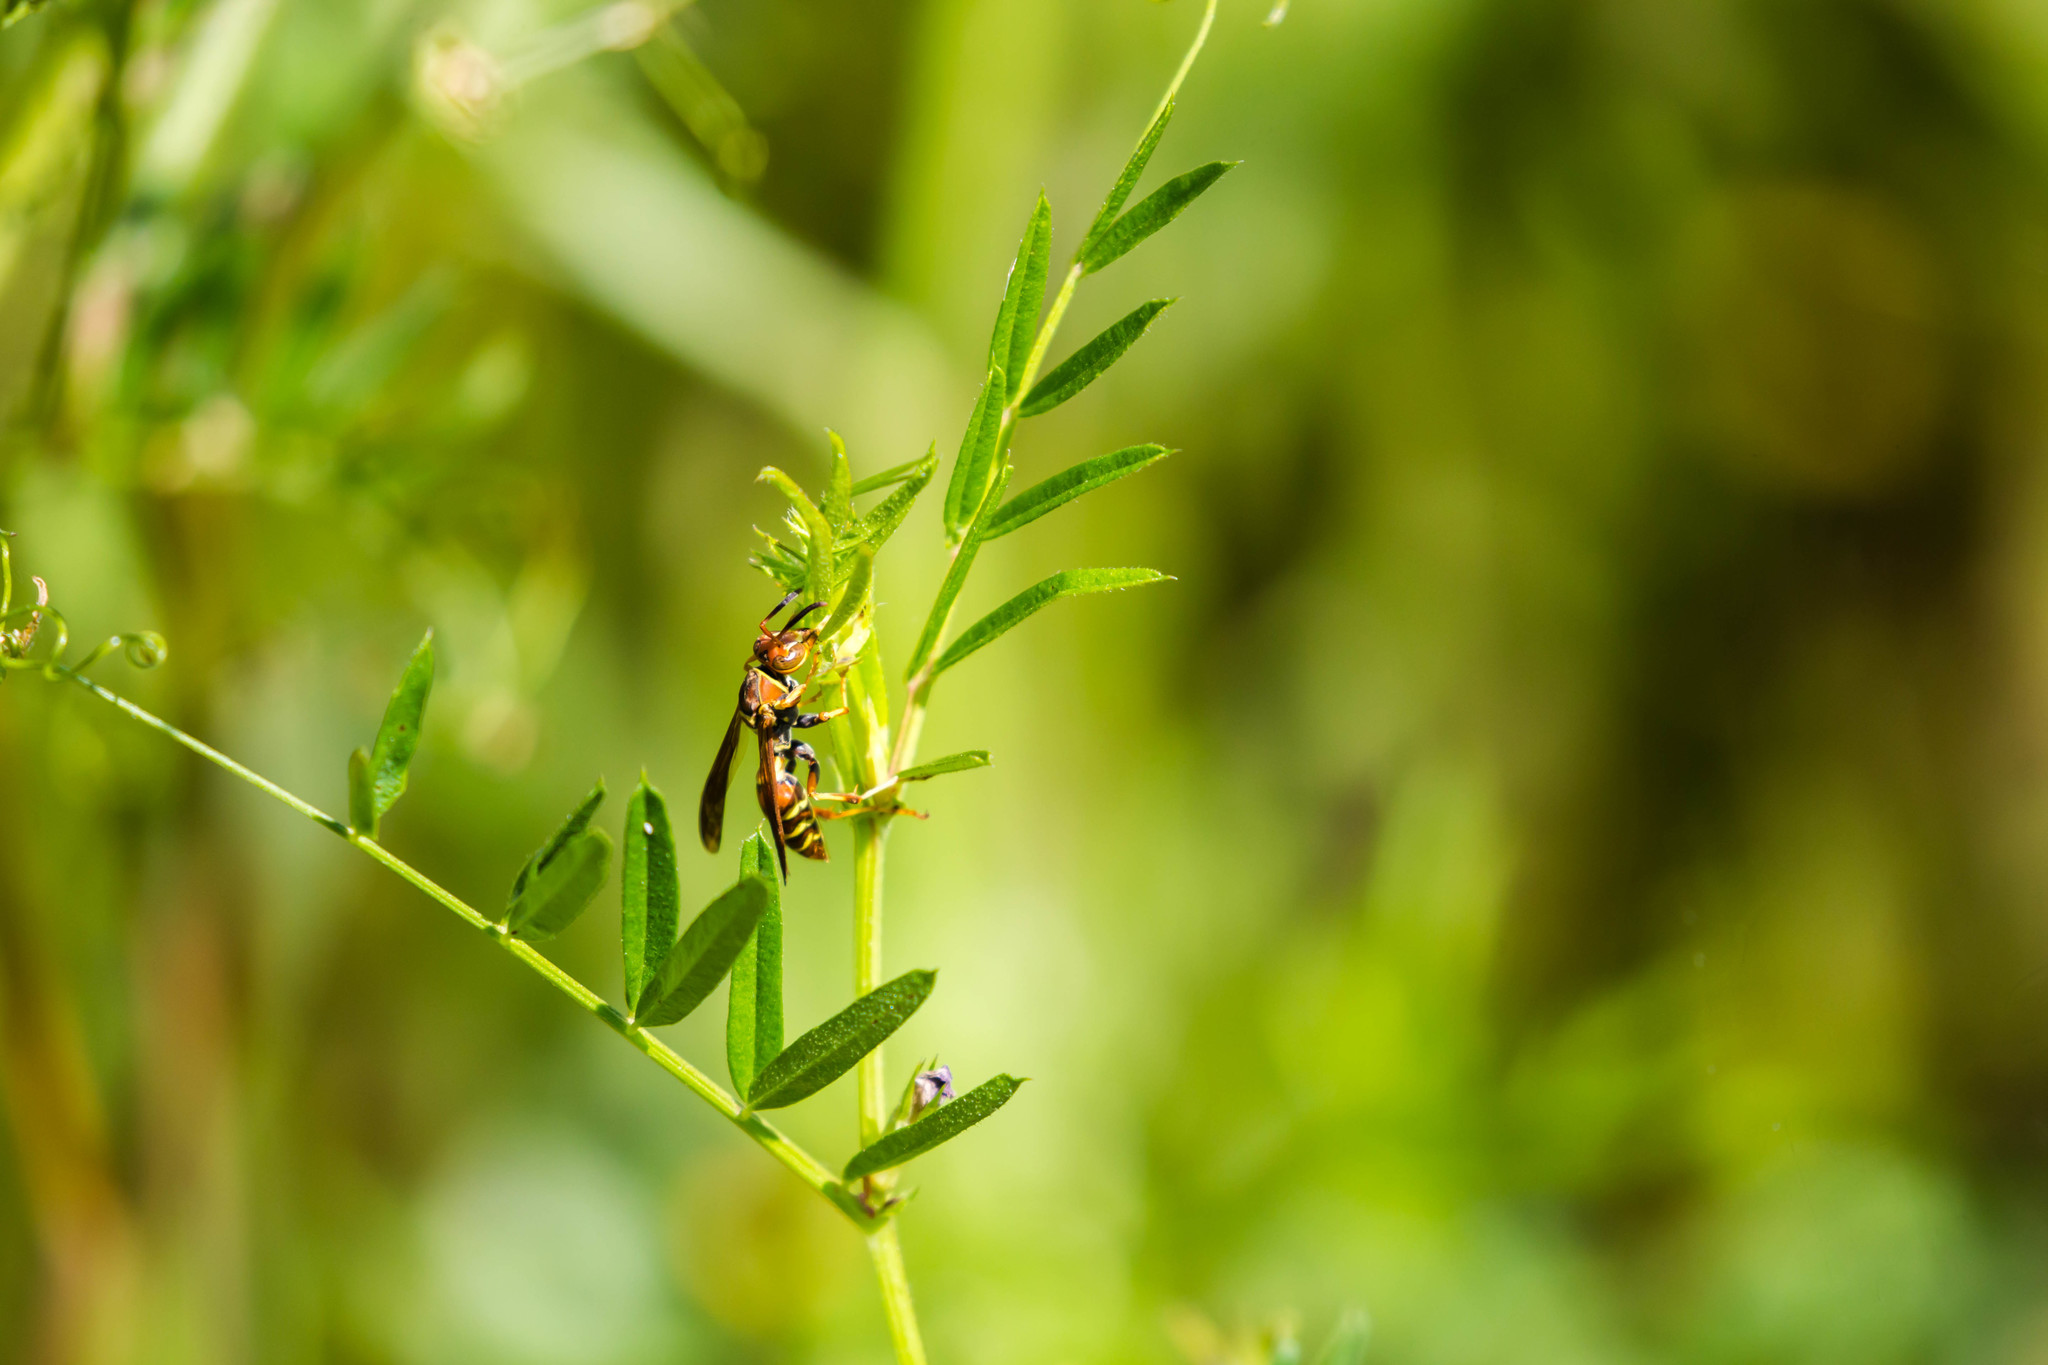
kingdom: Animalia
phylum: Arthropoda
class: Insecta
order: Hymenoptera
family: Eumenidae
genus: Polistes
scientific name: Polistes dorsalis
